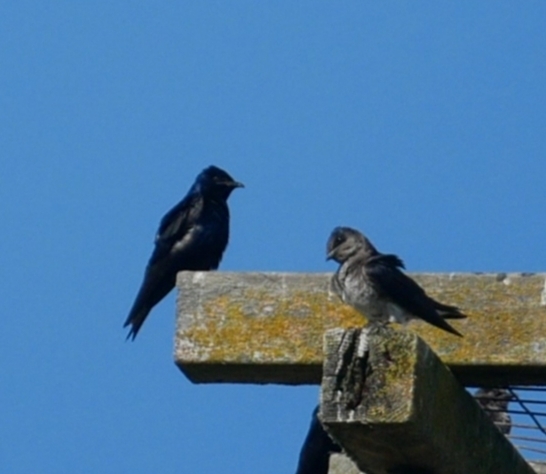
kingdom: Animalia
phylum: Chordata
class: Aves
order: Passeriformes
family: Hirundinidae
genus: Progne
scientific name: Progne subis
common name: Purple martin
